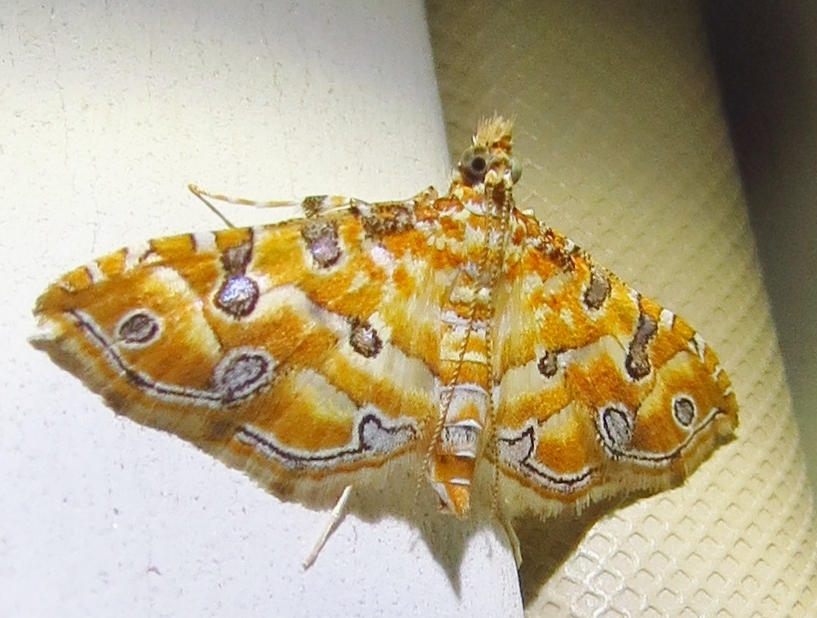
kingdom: Animalia
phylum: Arthropoda
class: Insecta
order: Lepidoptera
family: Crambidae
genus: Ommatospila
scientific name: Ommatospila narcaeusalis
